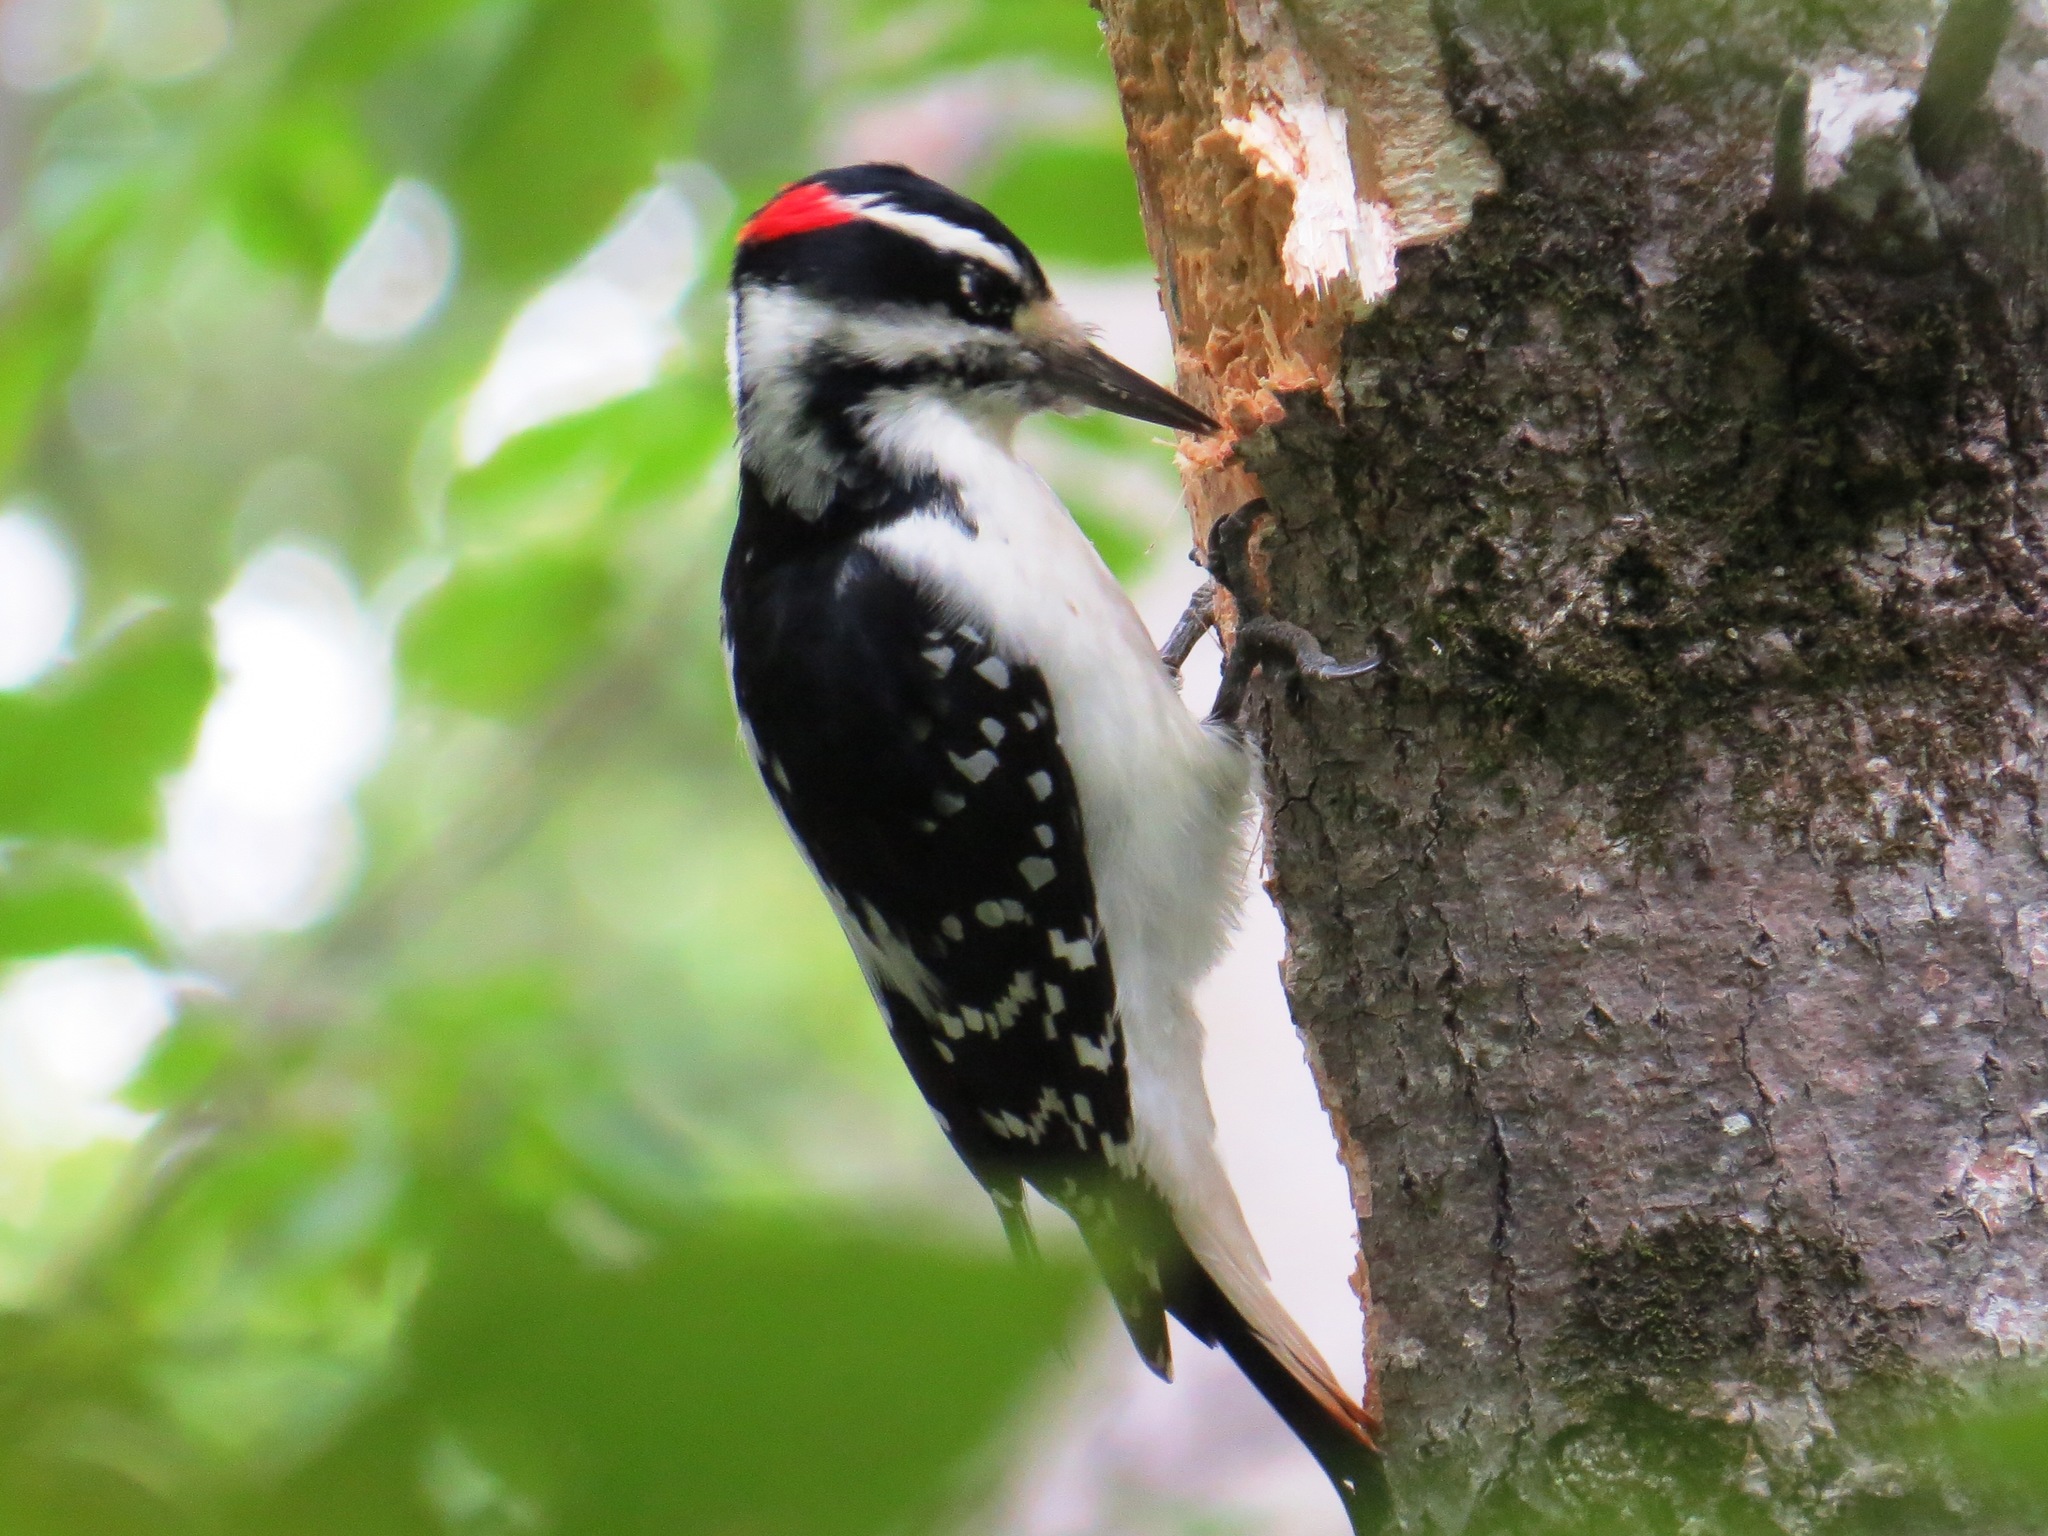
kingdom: Animalia
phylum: Chordata
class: Aves
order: Piciformes
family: Picidae
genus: Leuconotopicus
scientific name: Leuconotopicus villosus
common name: Hairy woodpecker
